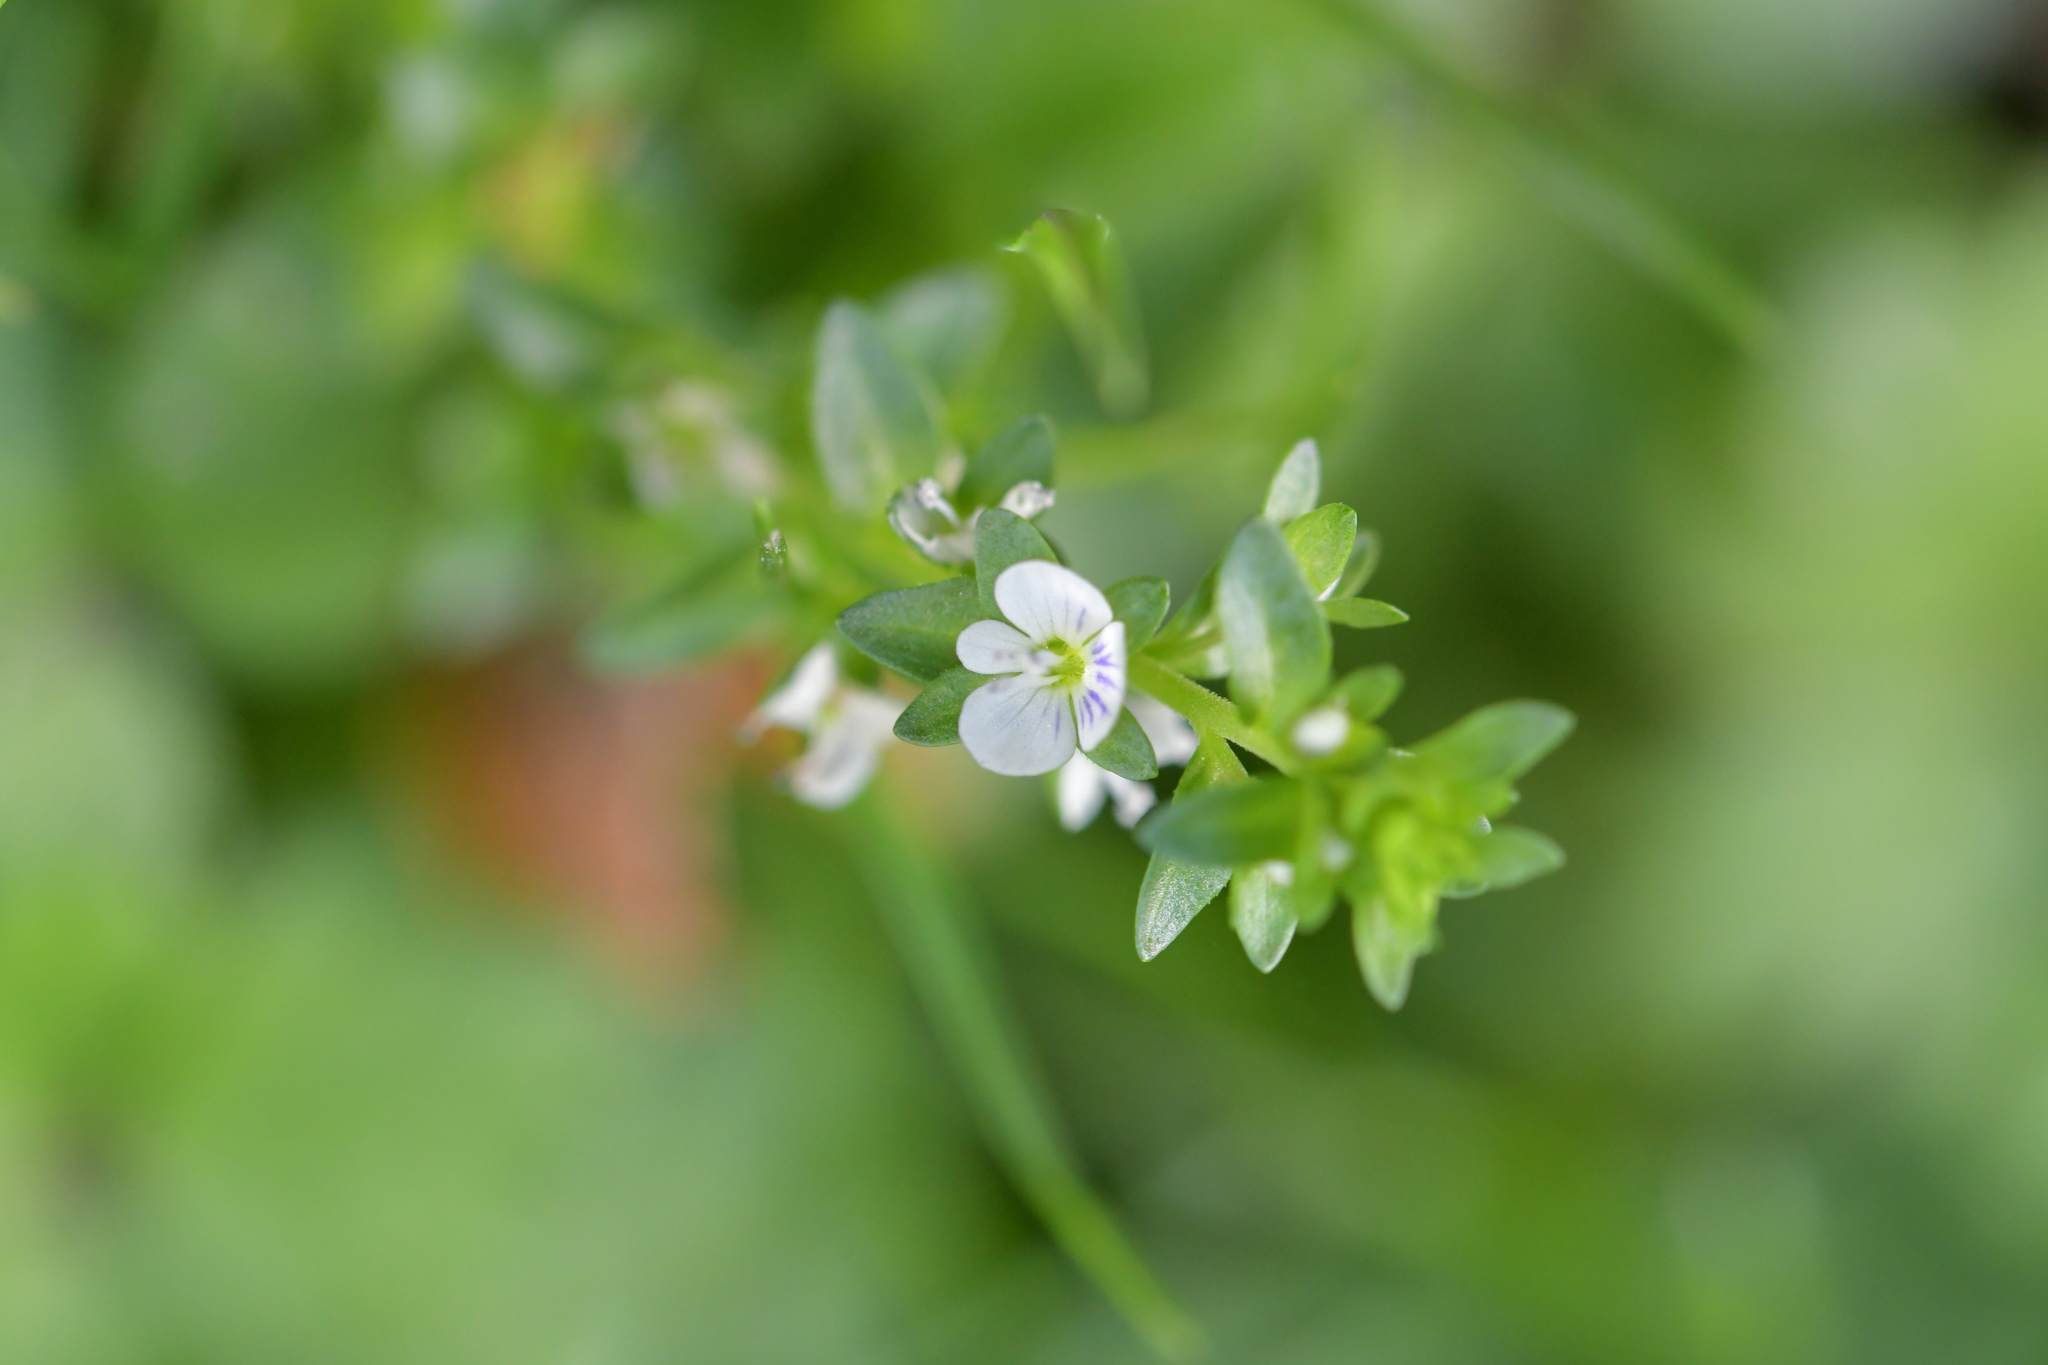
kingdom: Plantae
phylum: Tracheophyta
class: Magnoliopsida
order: Lamiales
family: Plantaginaceae
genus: Veronica
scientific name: Veronica serpyllifolia
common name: Thyme-leaved speedwell
